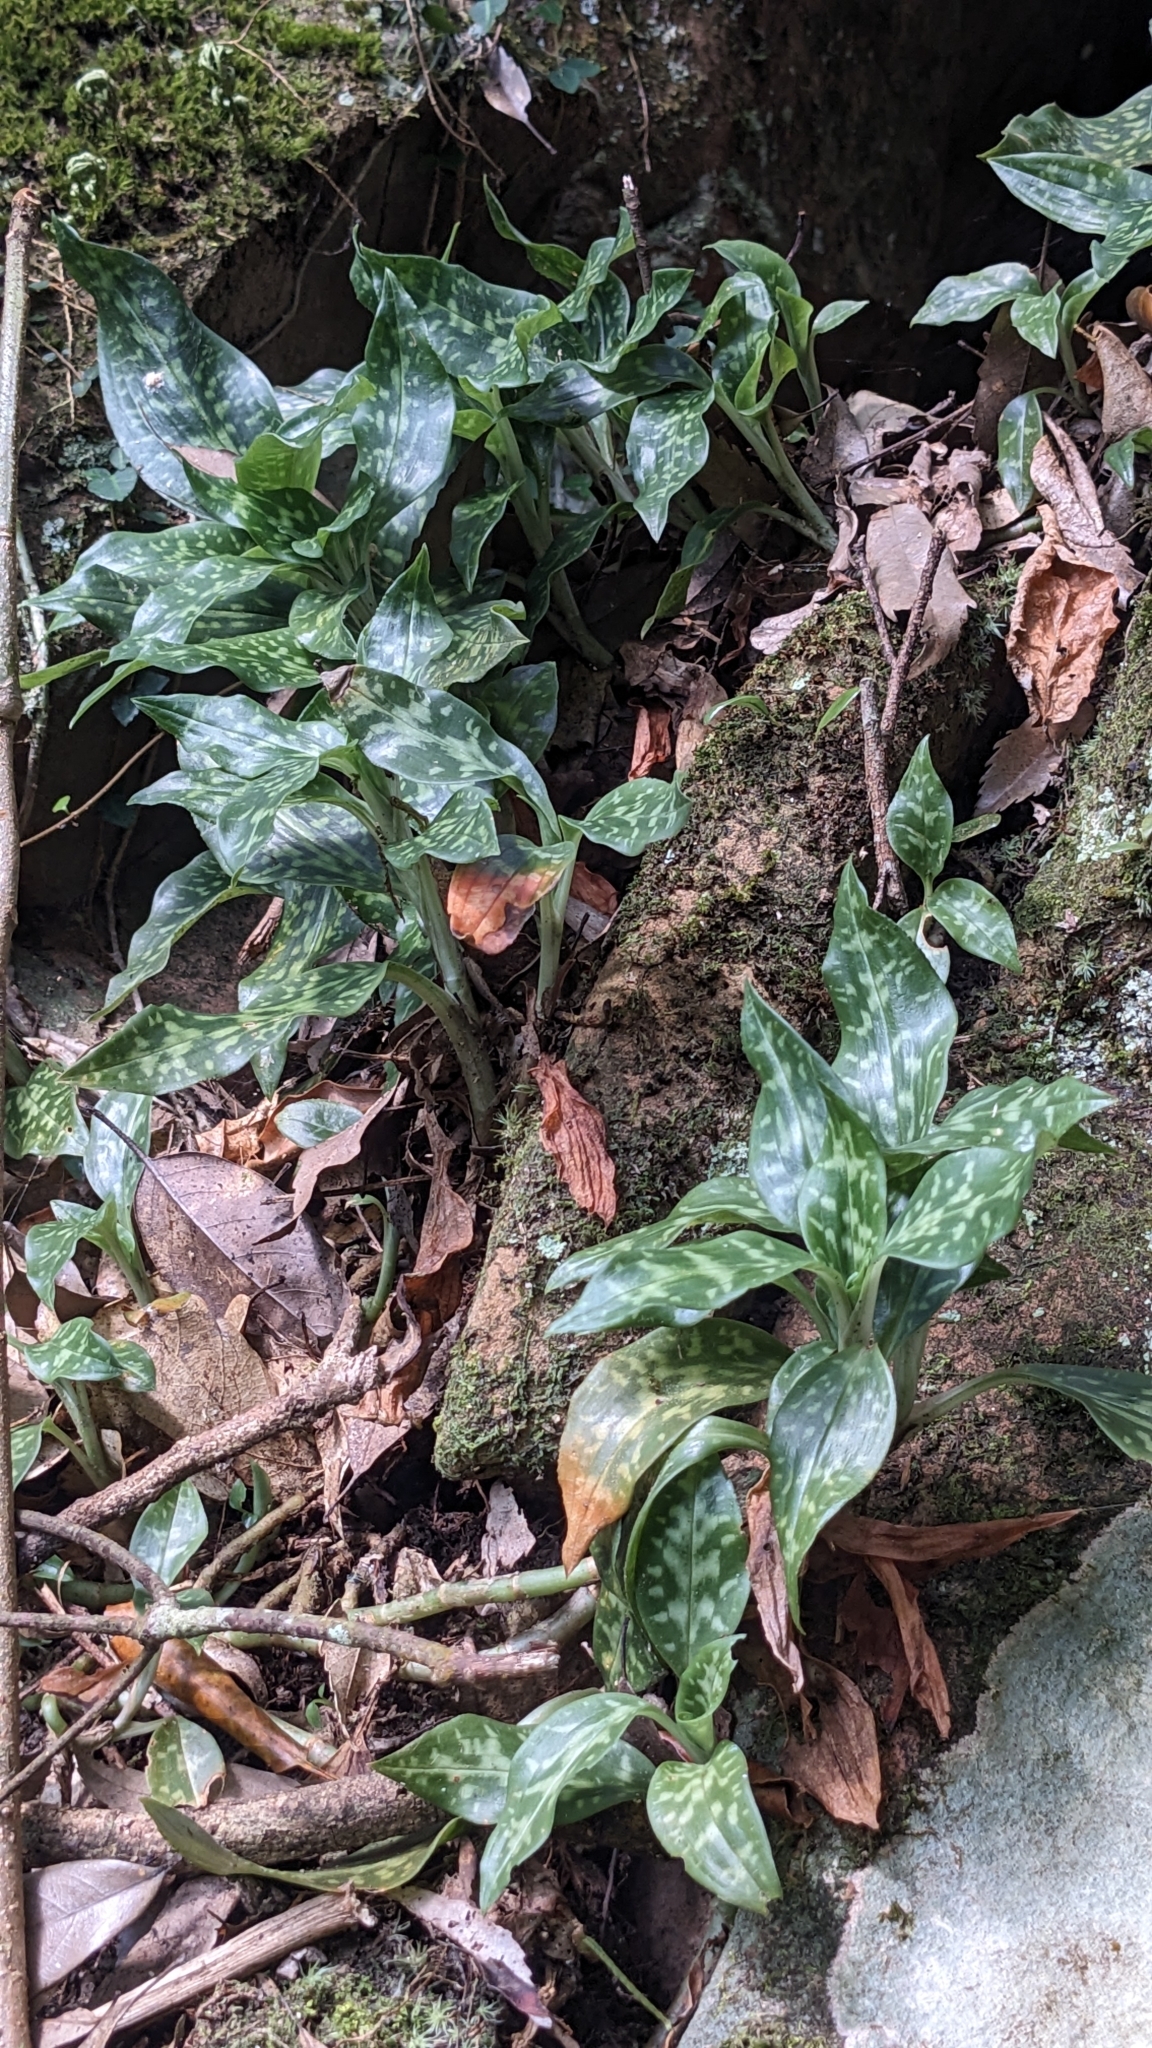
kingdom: Plantae
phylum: Tracheophyta
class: Liliopsida
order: Asparagales
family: Orchidaceae
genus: Goodyera
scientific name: Goodyera daibuzanensis
